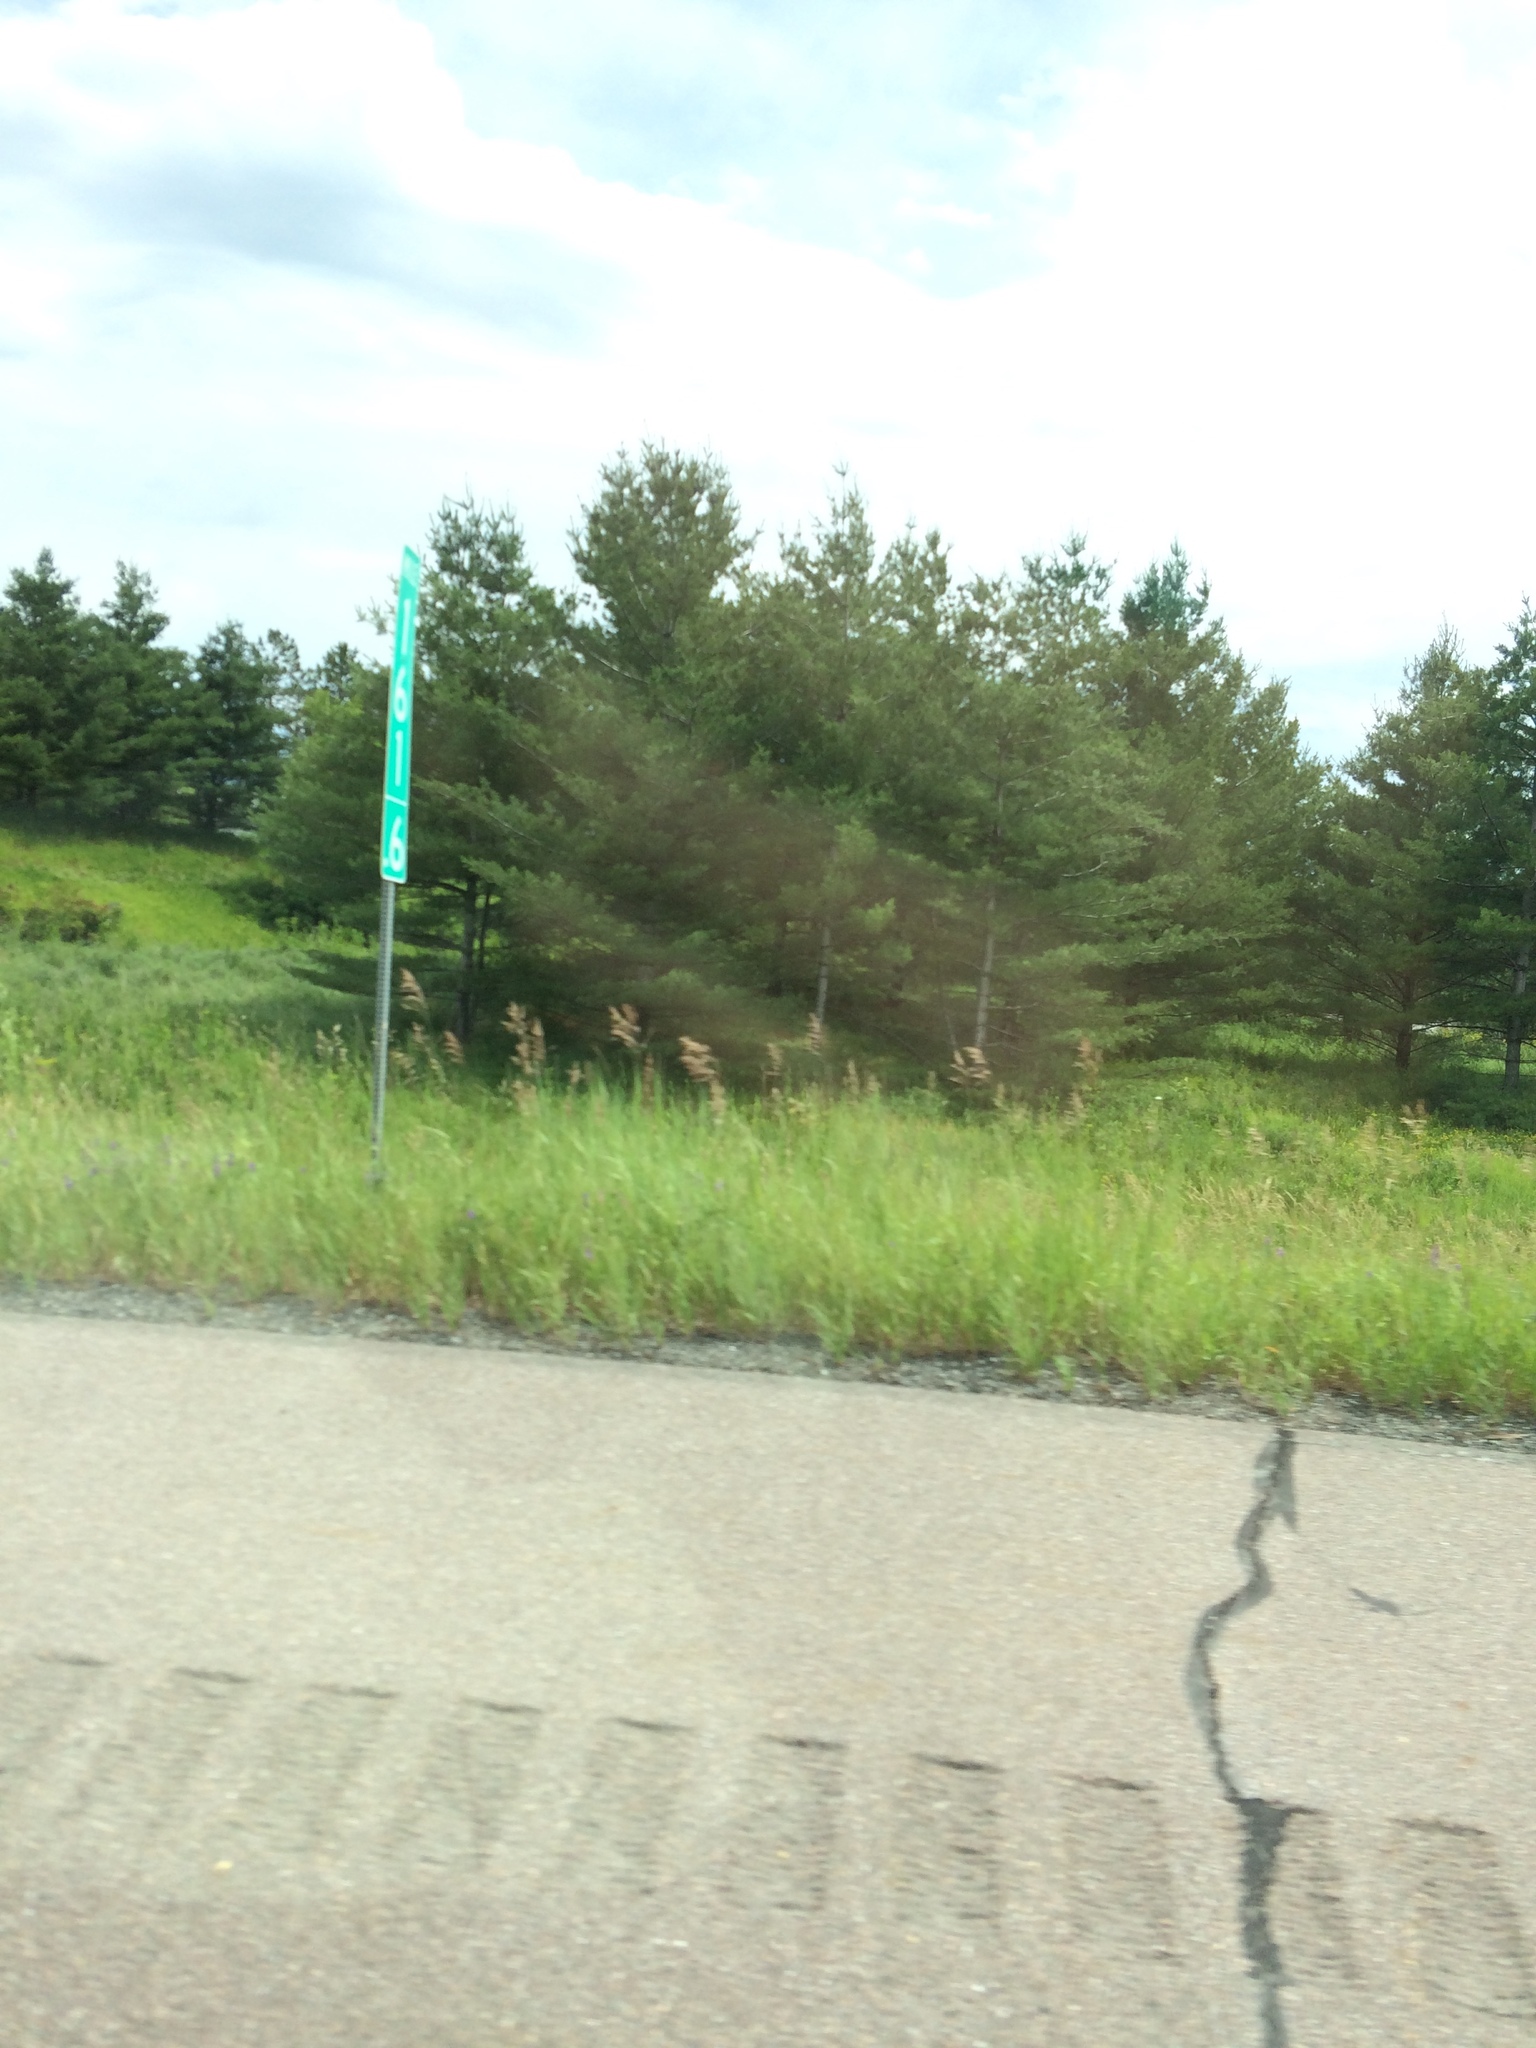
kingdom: Plantae
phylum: Tracheophyta
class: Pinopsida
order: Pinales
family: Pinaceae
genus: Pinus
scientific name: Pinus strobus
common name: Weymouth pine
